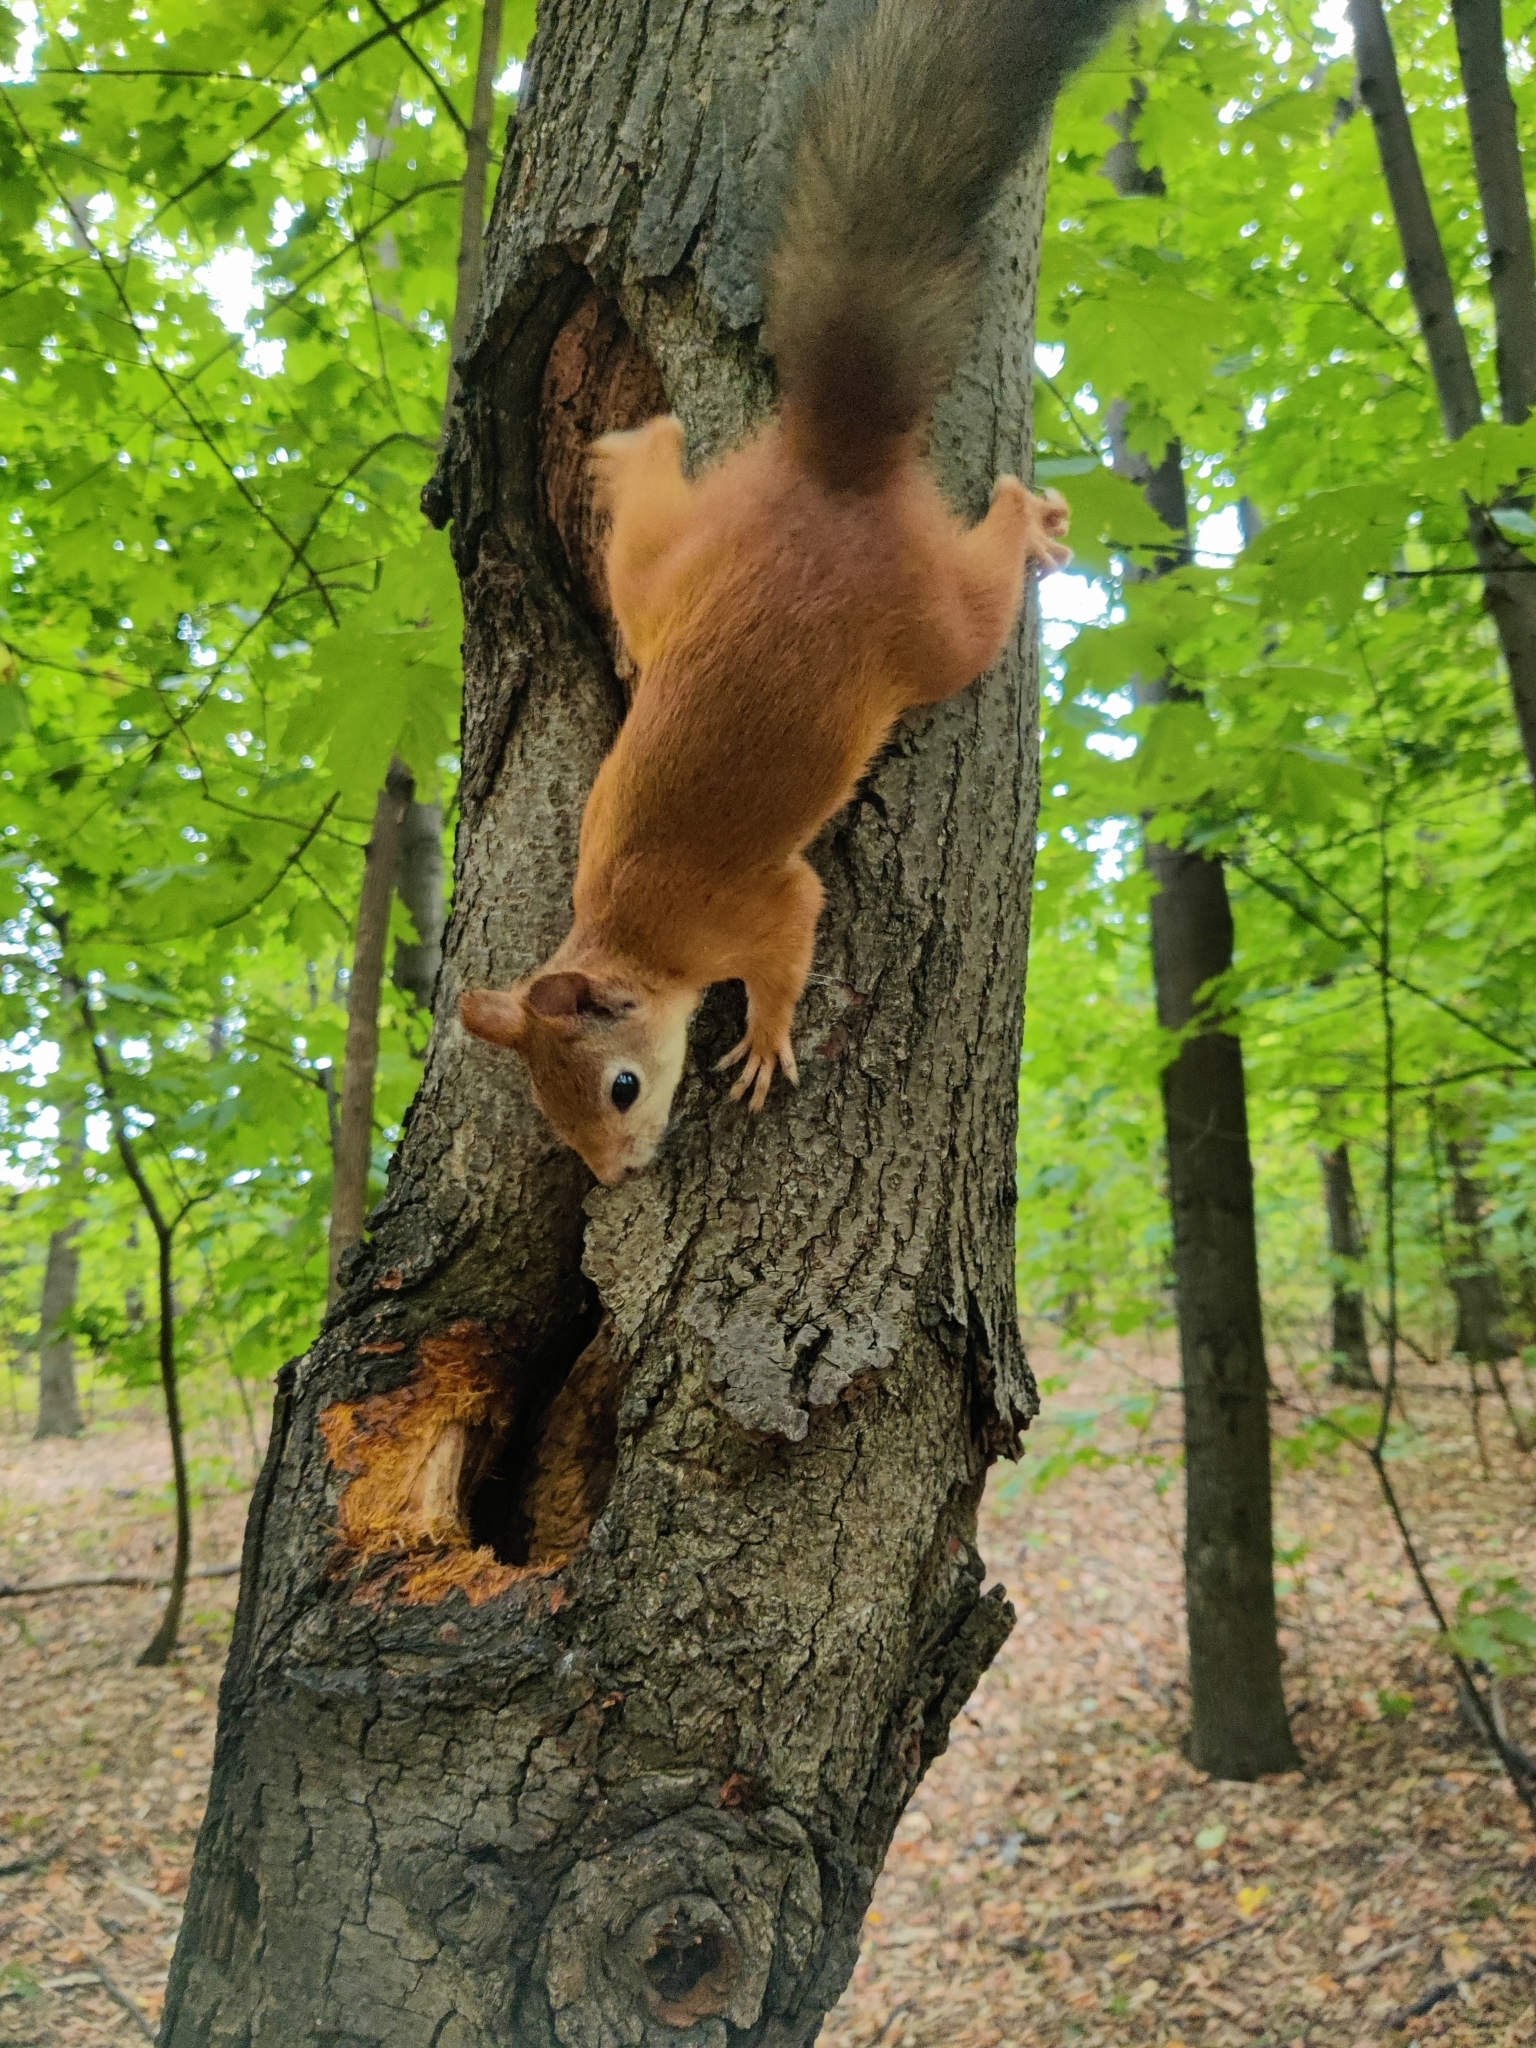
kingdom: Animalia
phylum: Chordata
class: Mammalia
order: Rodentia
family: Sciuridae
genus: Sciurus
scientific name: Sciurus vulgaris
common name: Eurasian red squirrel
